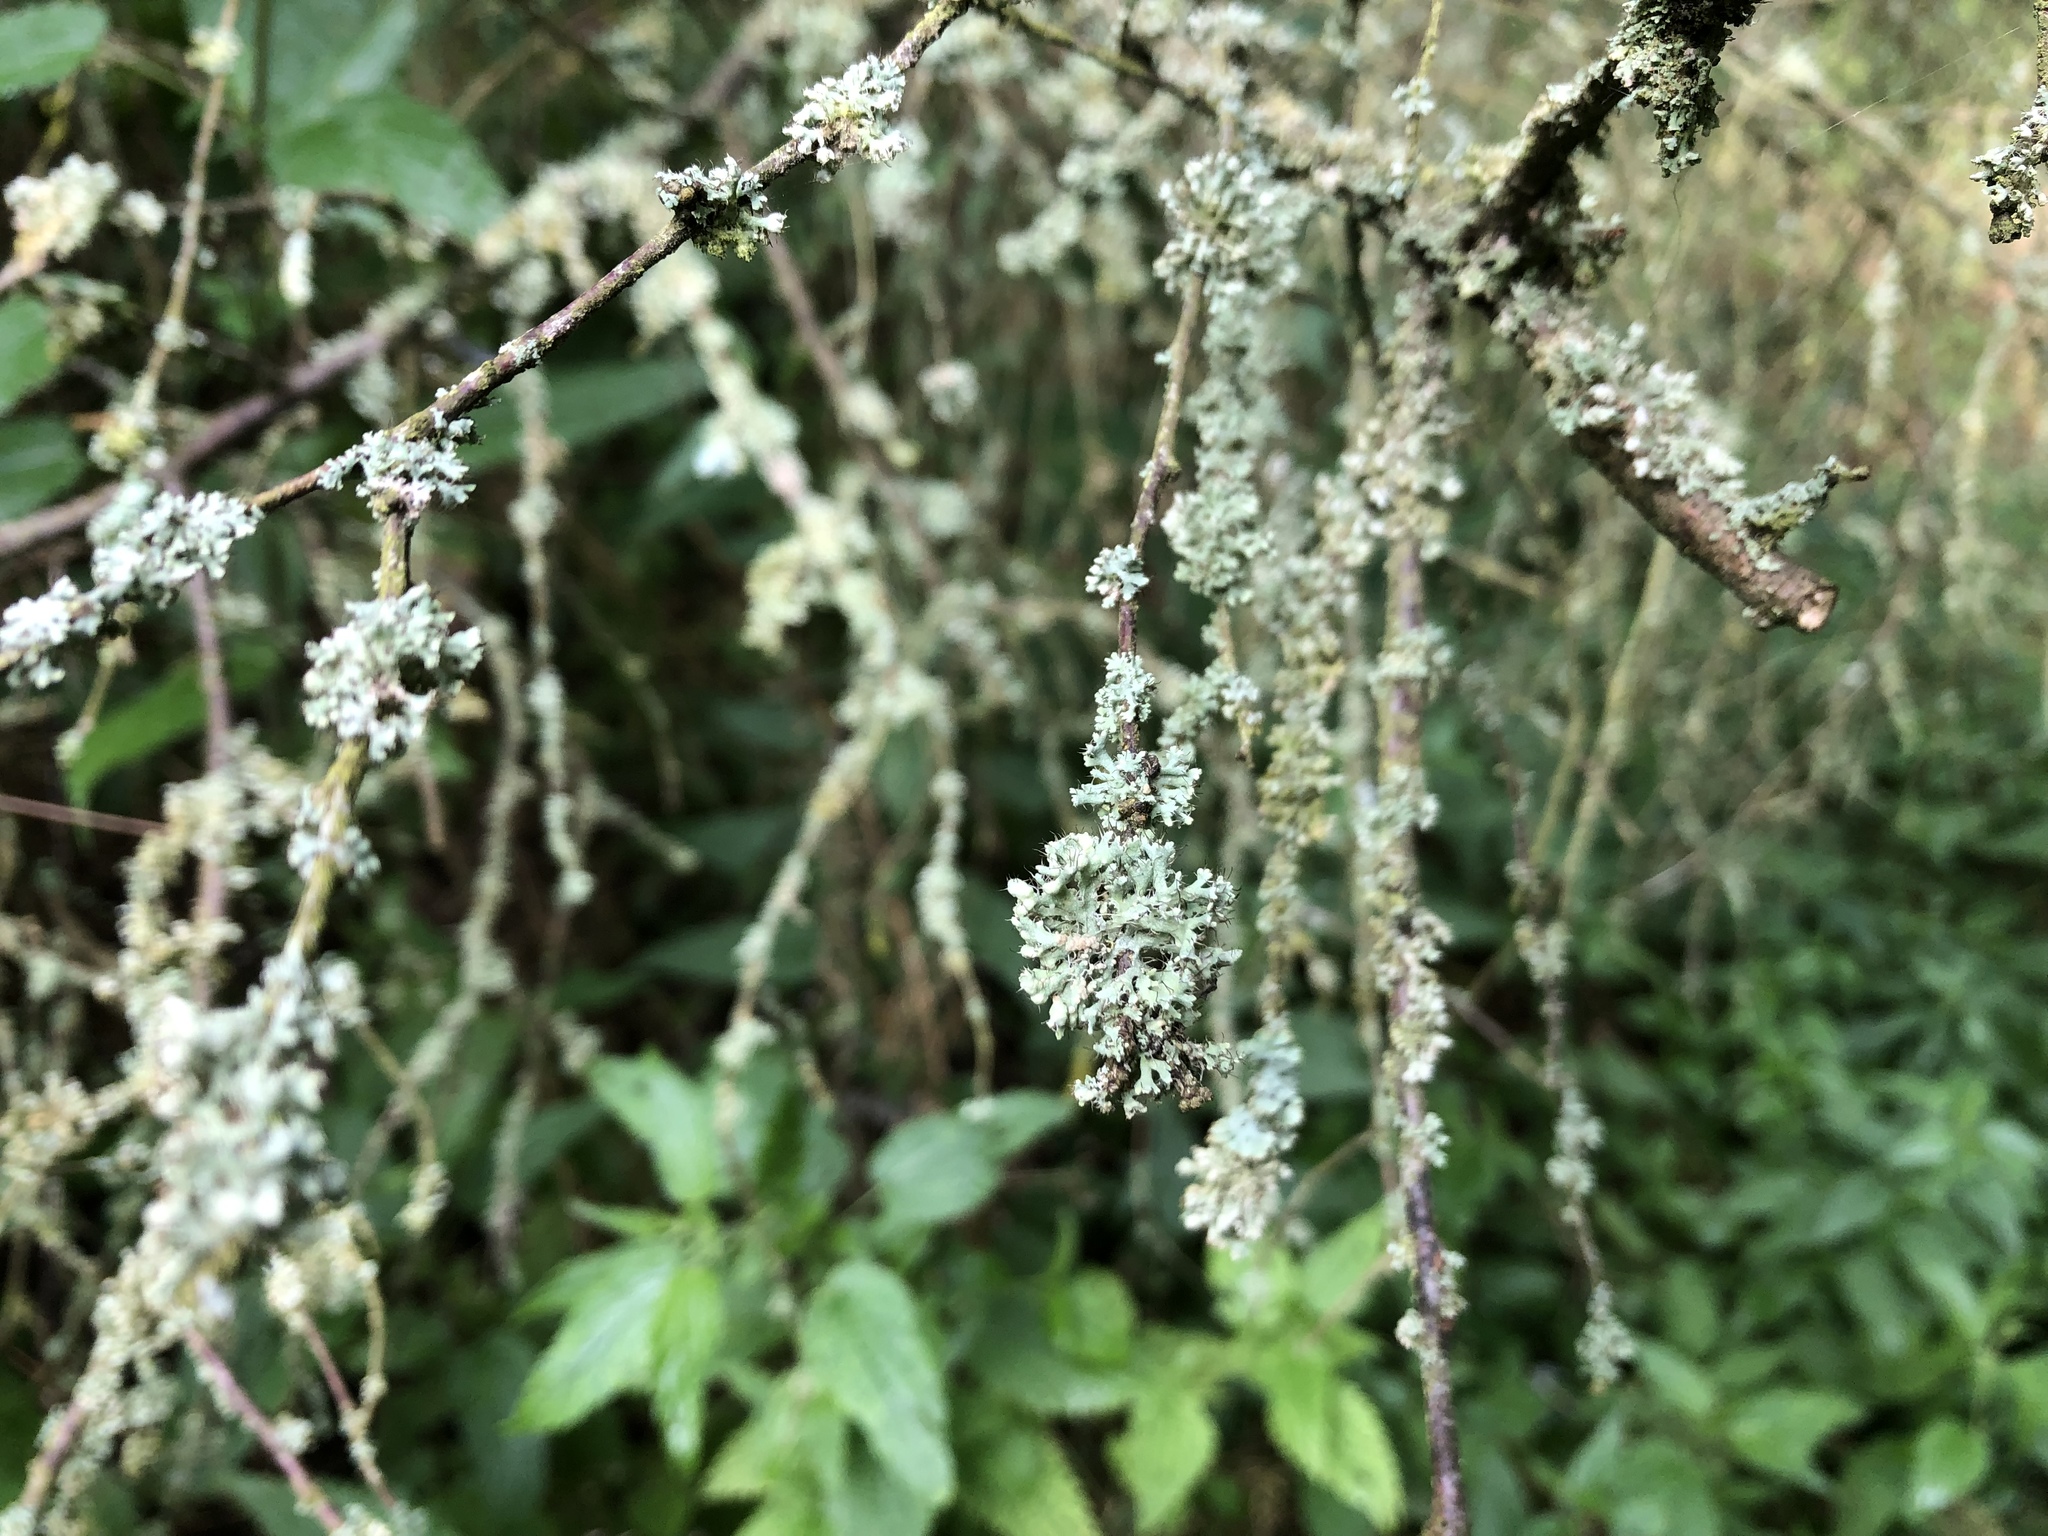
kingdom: Fungi
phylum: Ascomycota
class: Lecanoromycetes
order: Caliciales
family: Physciaceae
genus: Physcia
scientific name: Physcia adscendens
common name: Hooded rosette lichen
